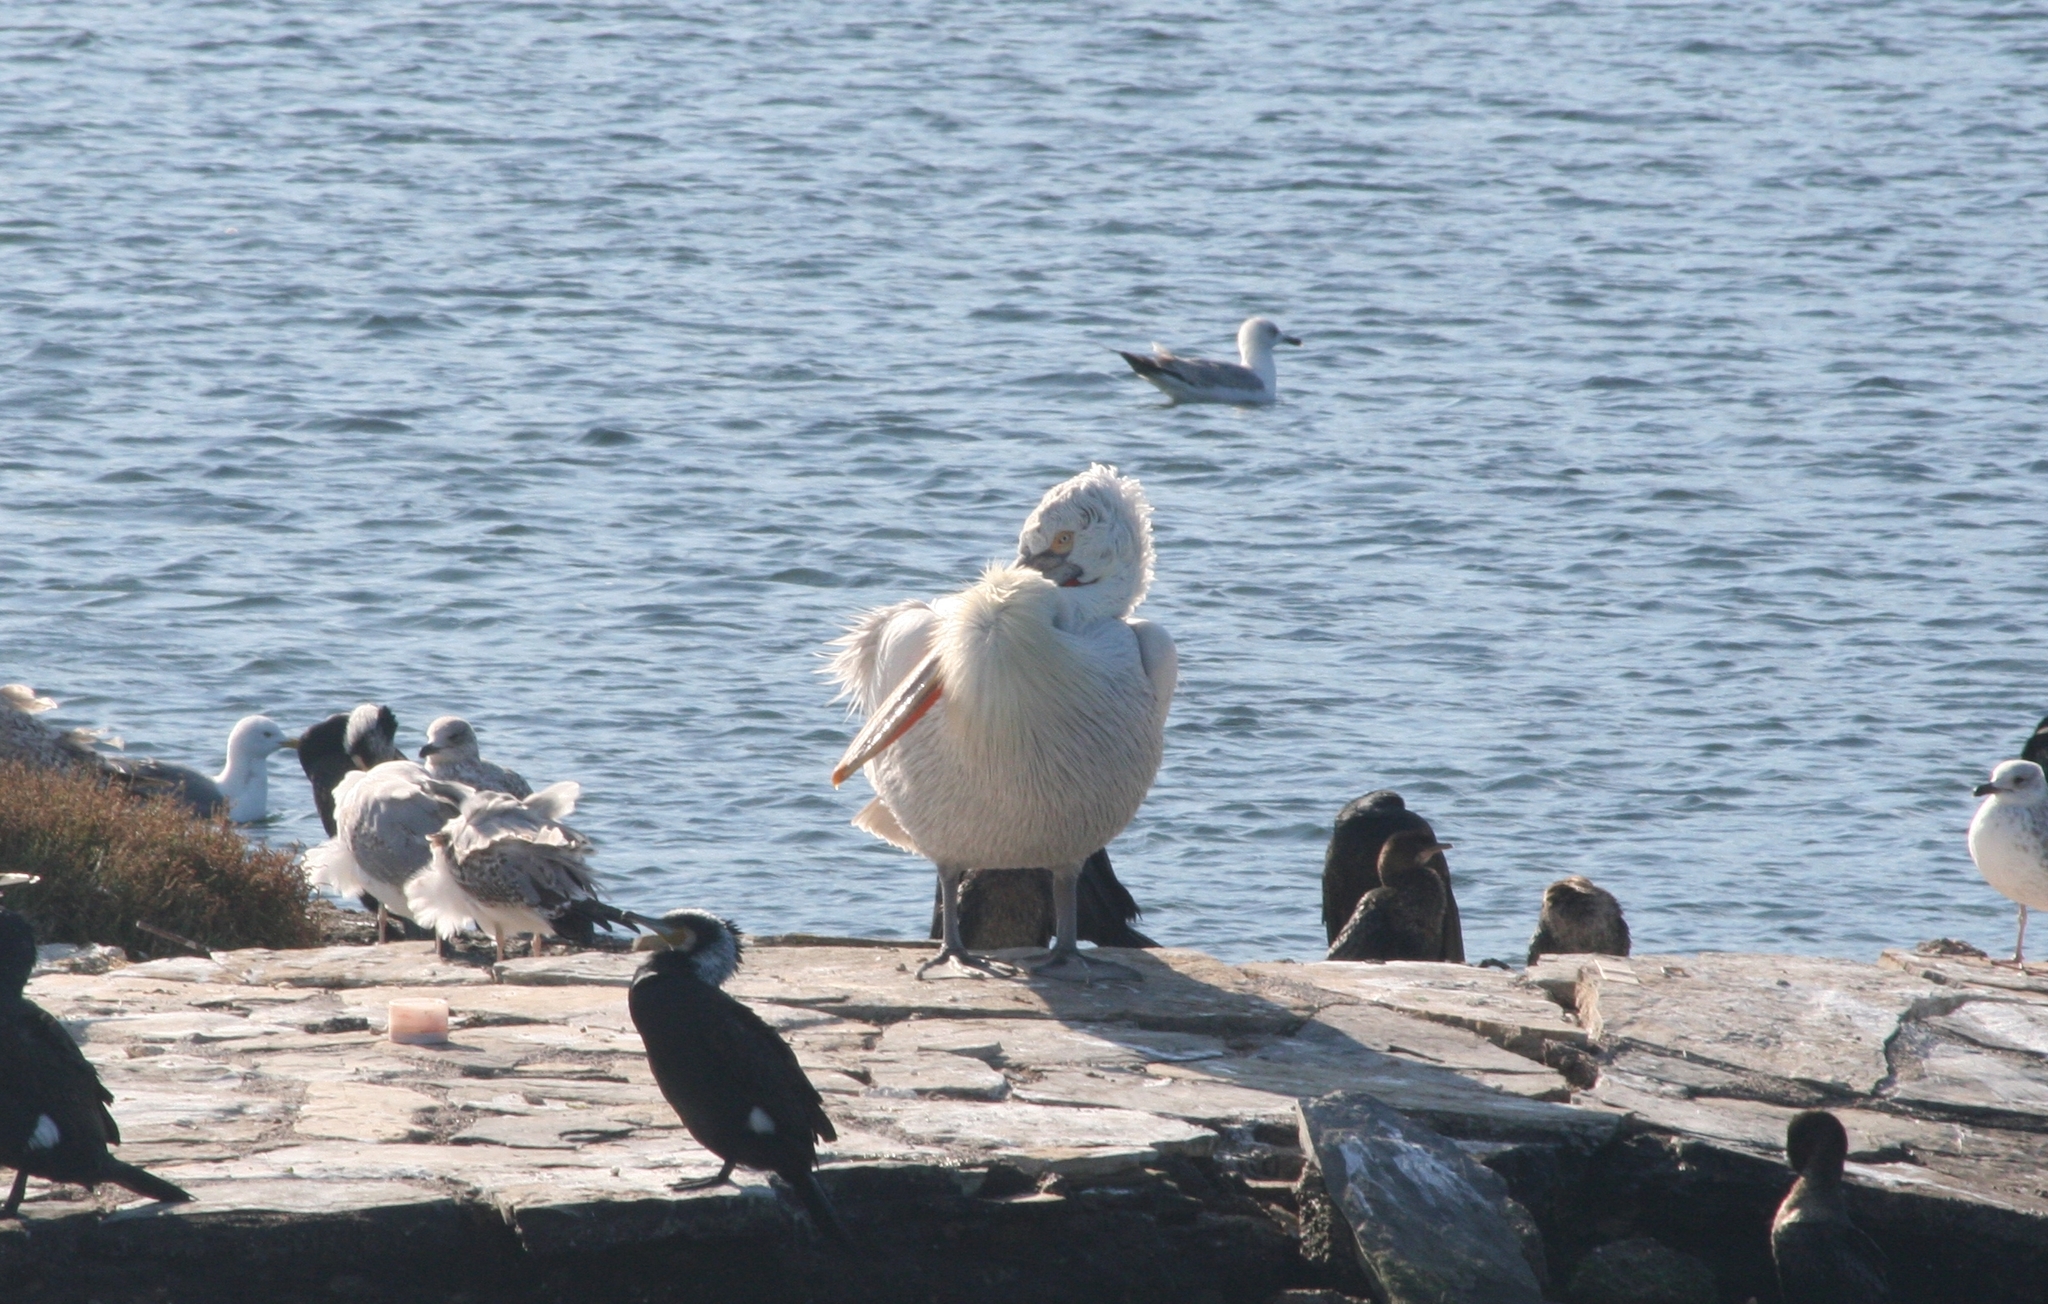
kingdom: Animalia
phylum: Chordata
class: Aves
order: Pelecaniformes
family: Pelecanidae
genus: Pelecanus
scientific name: Pelecanus crispus
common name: Dalmatian pelican
